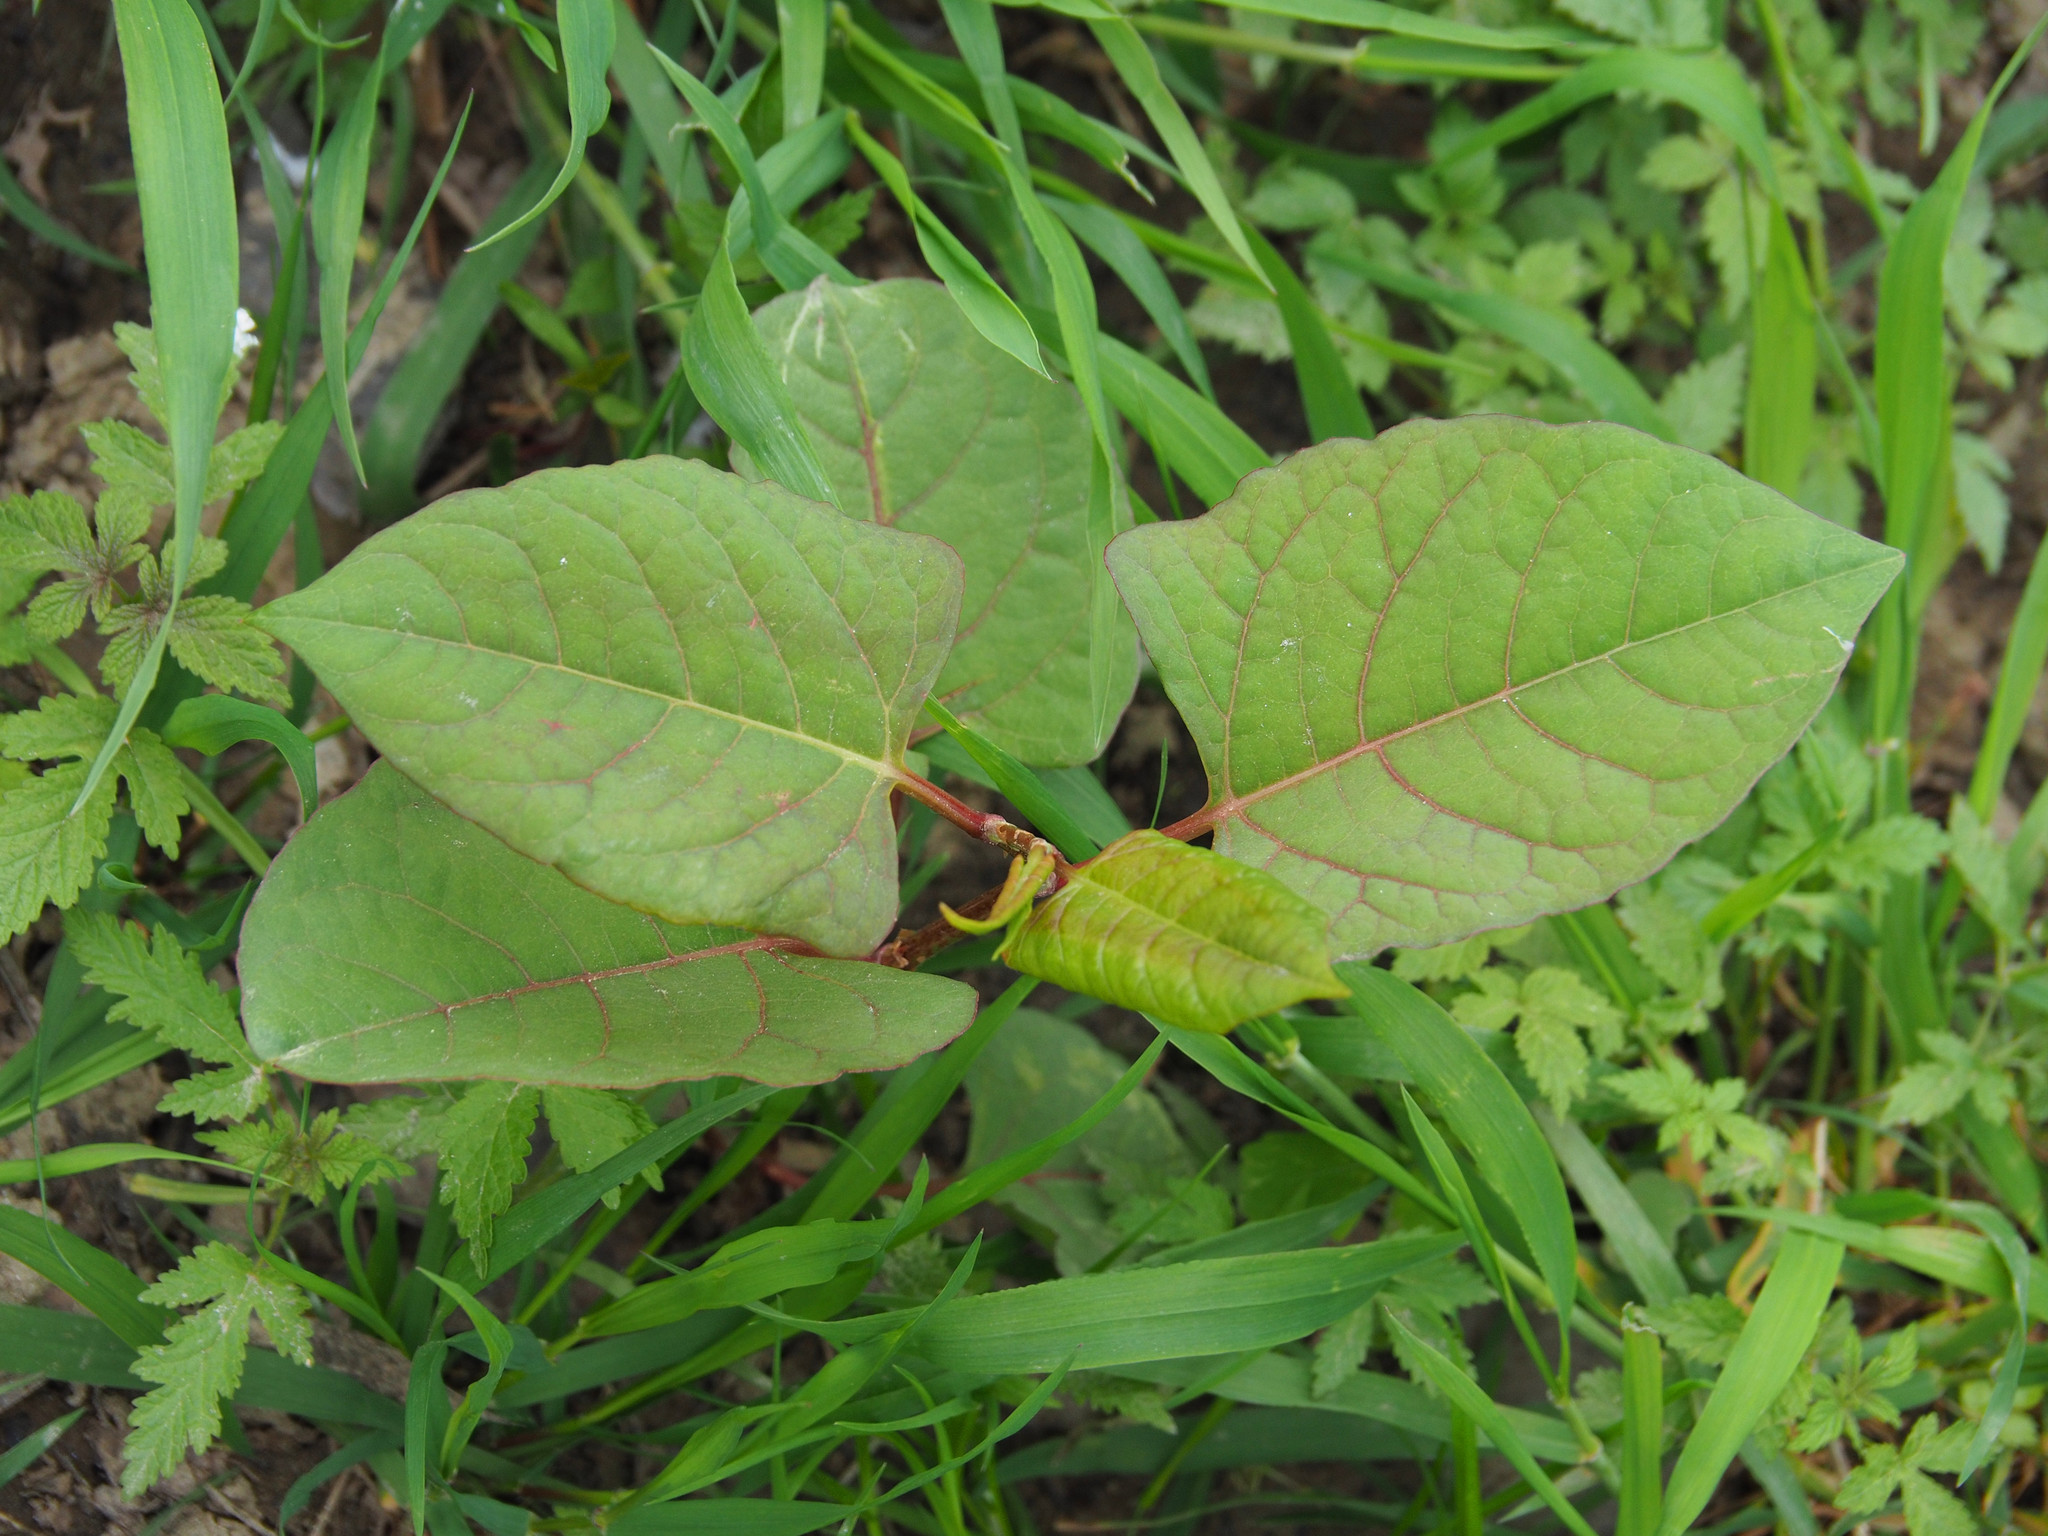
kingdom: Plantae
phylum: Tracheophyta
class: Magnoliopsida
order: Caryophyllales
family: Polygonaceae
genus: Reynoutria
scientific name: Reynoutria japonica
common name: Japanese knotweed
